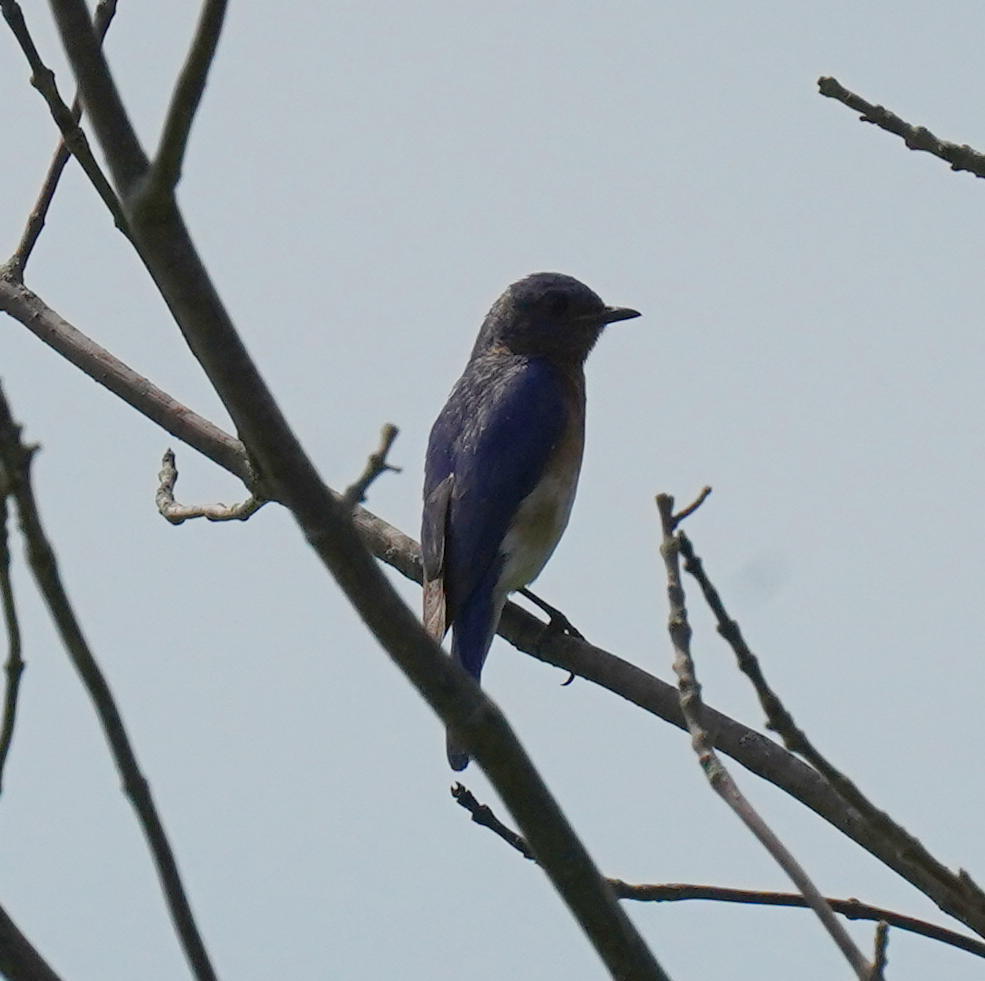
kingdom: Animalia
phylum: Chordata
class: Aves
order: Passeriformes
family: Turdidae
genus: Sialia
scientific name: Sialia sialis
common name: Eastern bluebird
